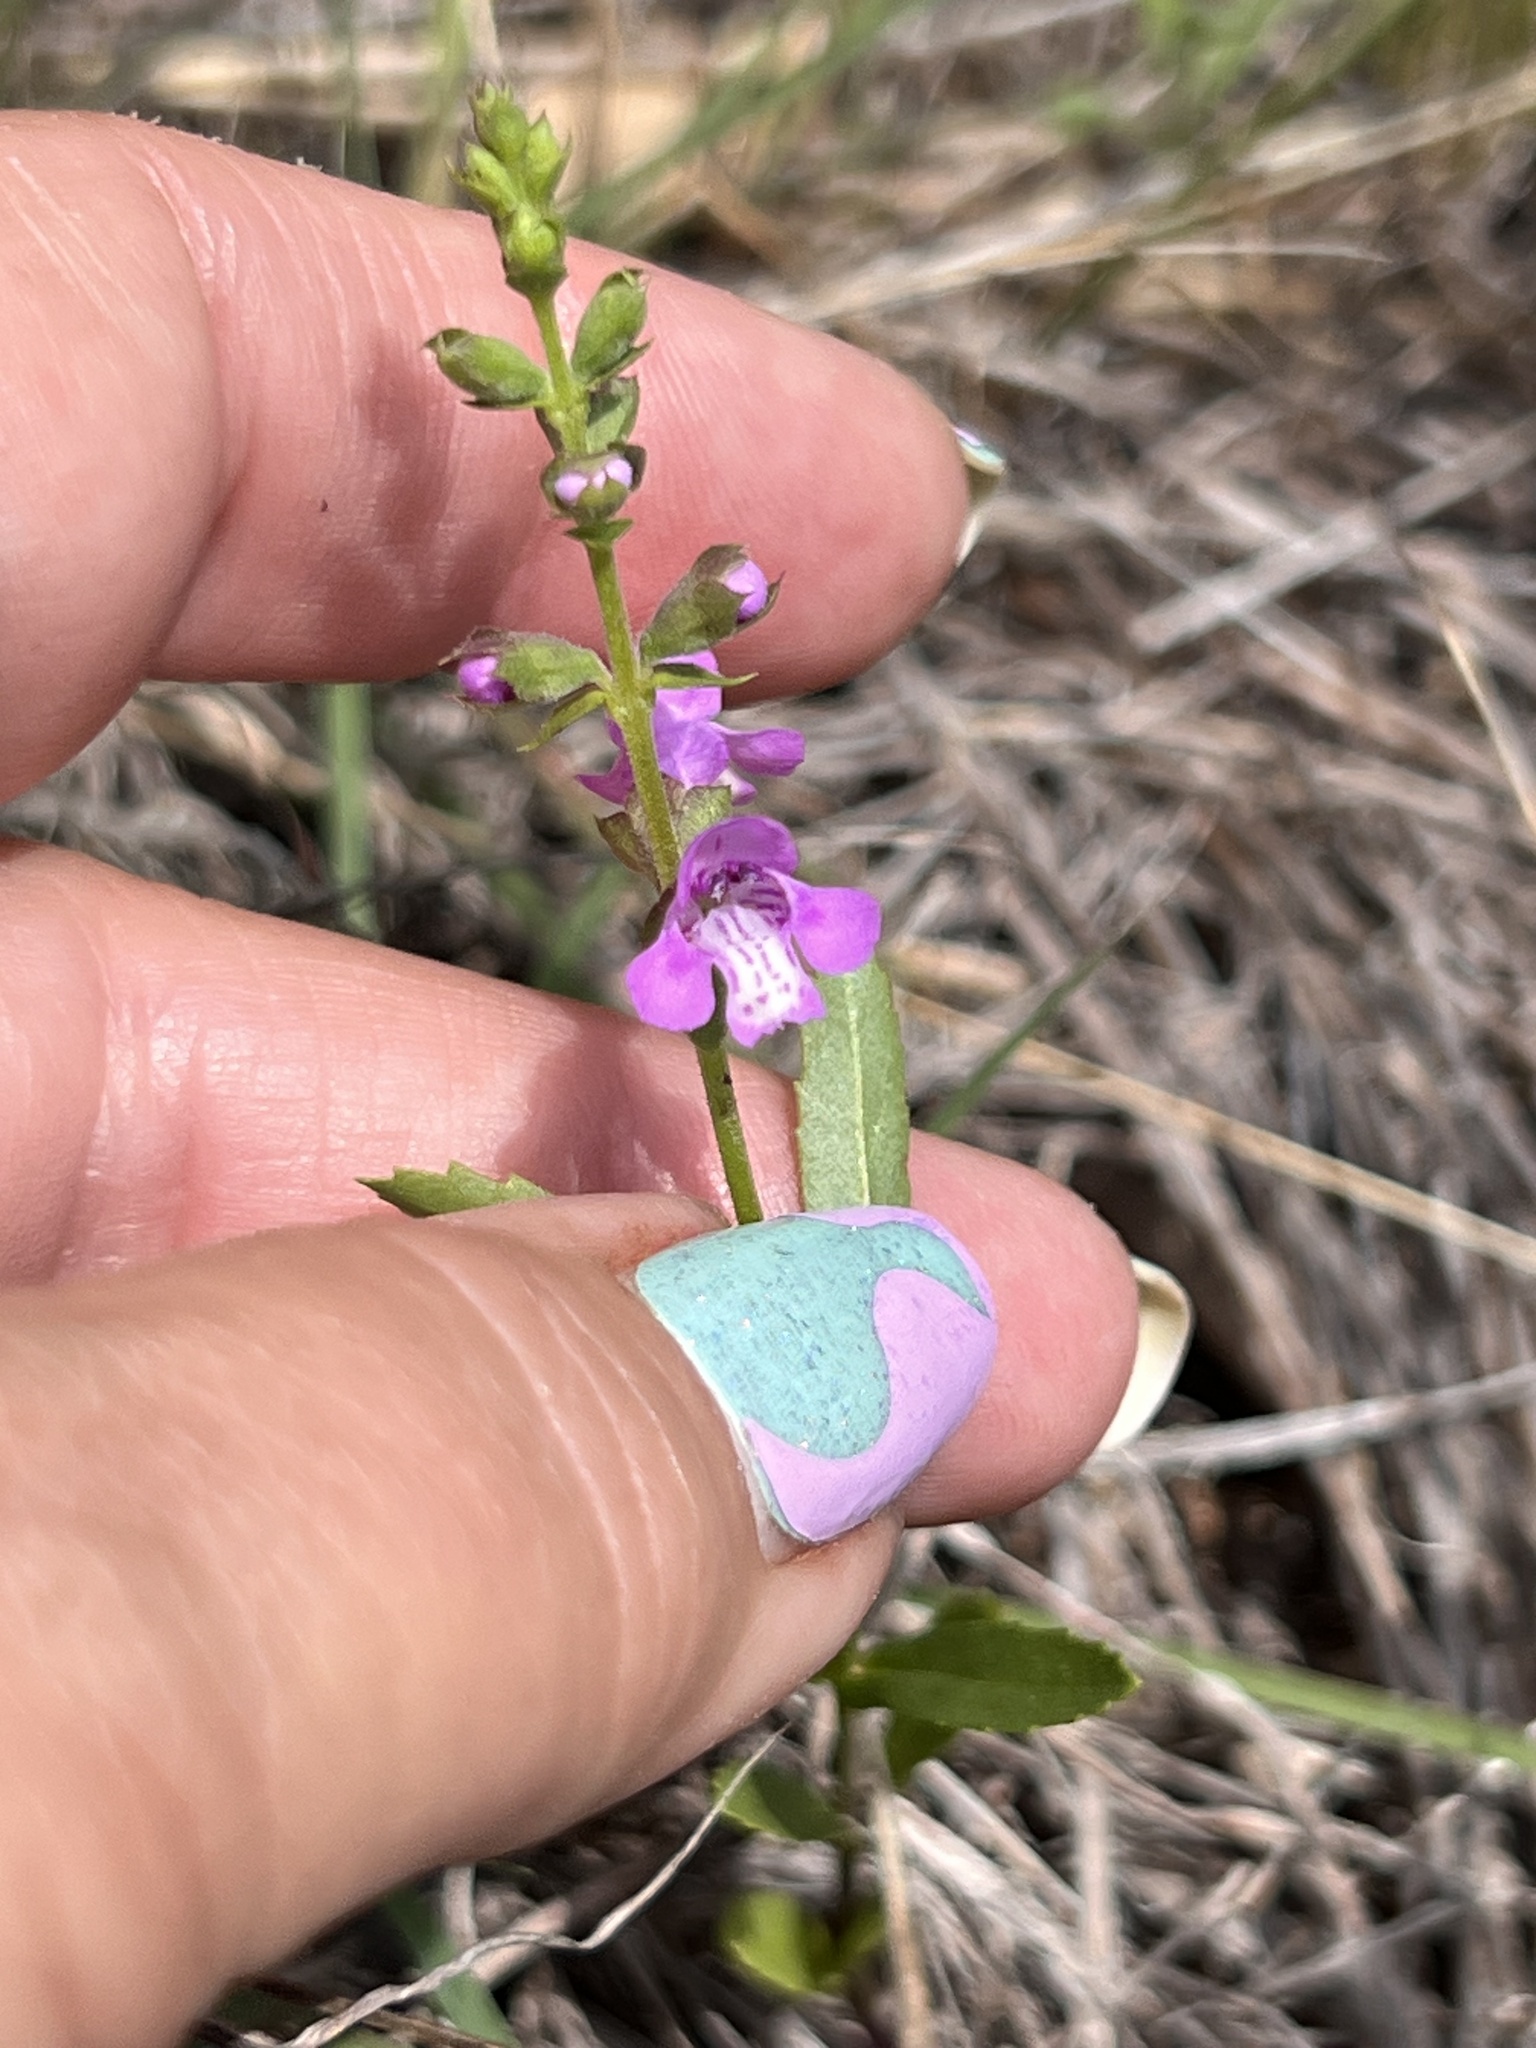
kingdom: Plantae
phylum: Tracheophyta
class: Magnoliopsida
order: Lamiales
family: Lamiaceae
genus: Warnockia
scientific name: Warnockia scutellarioides
